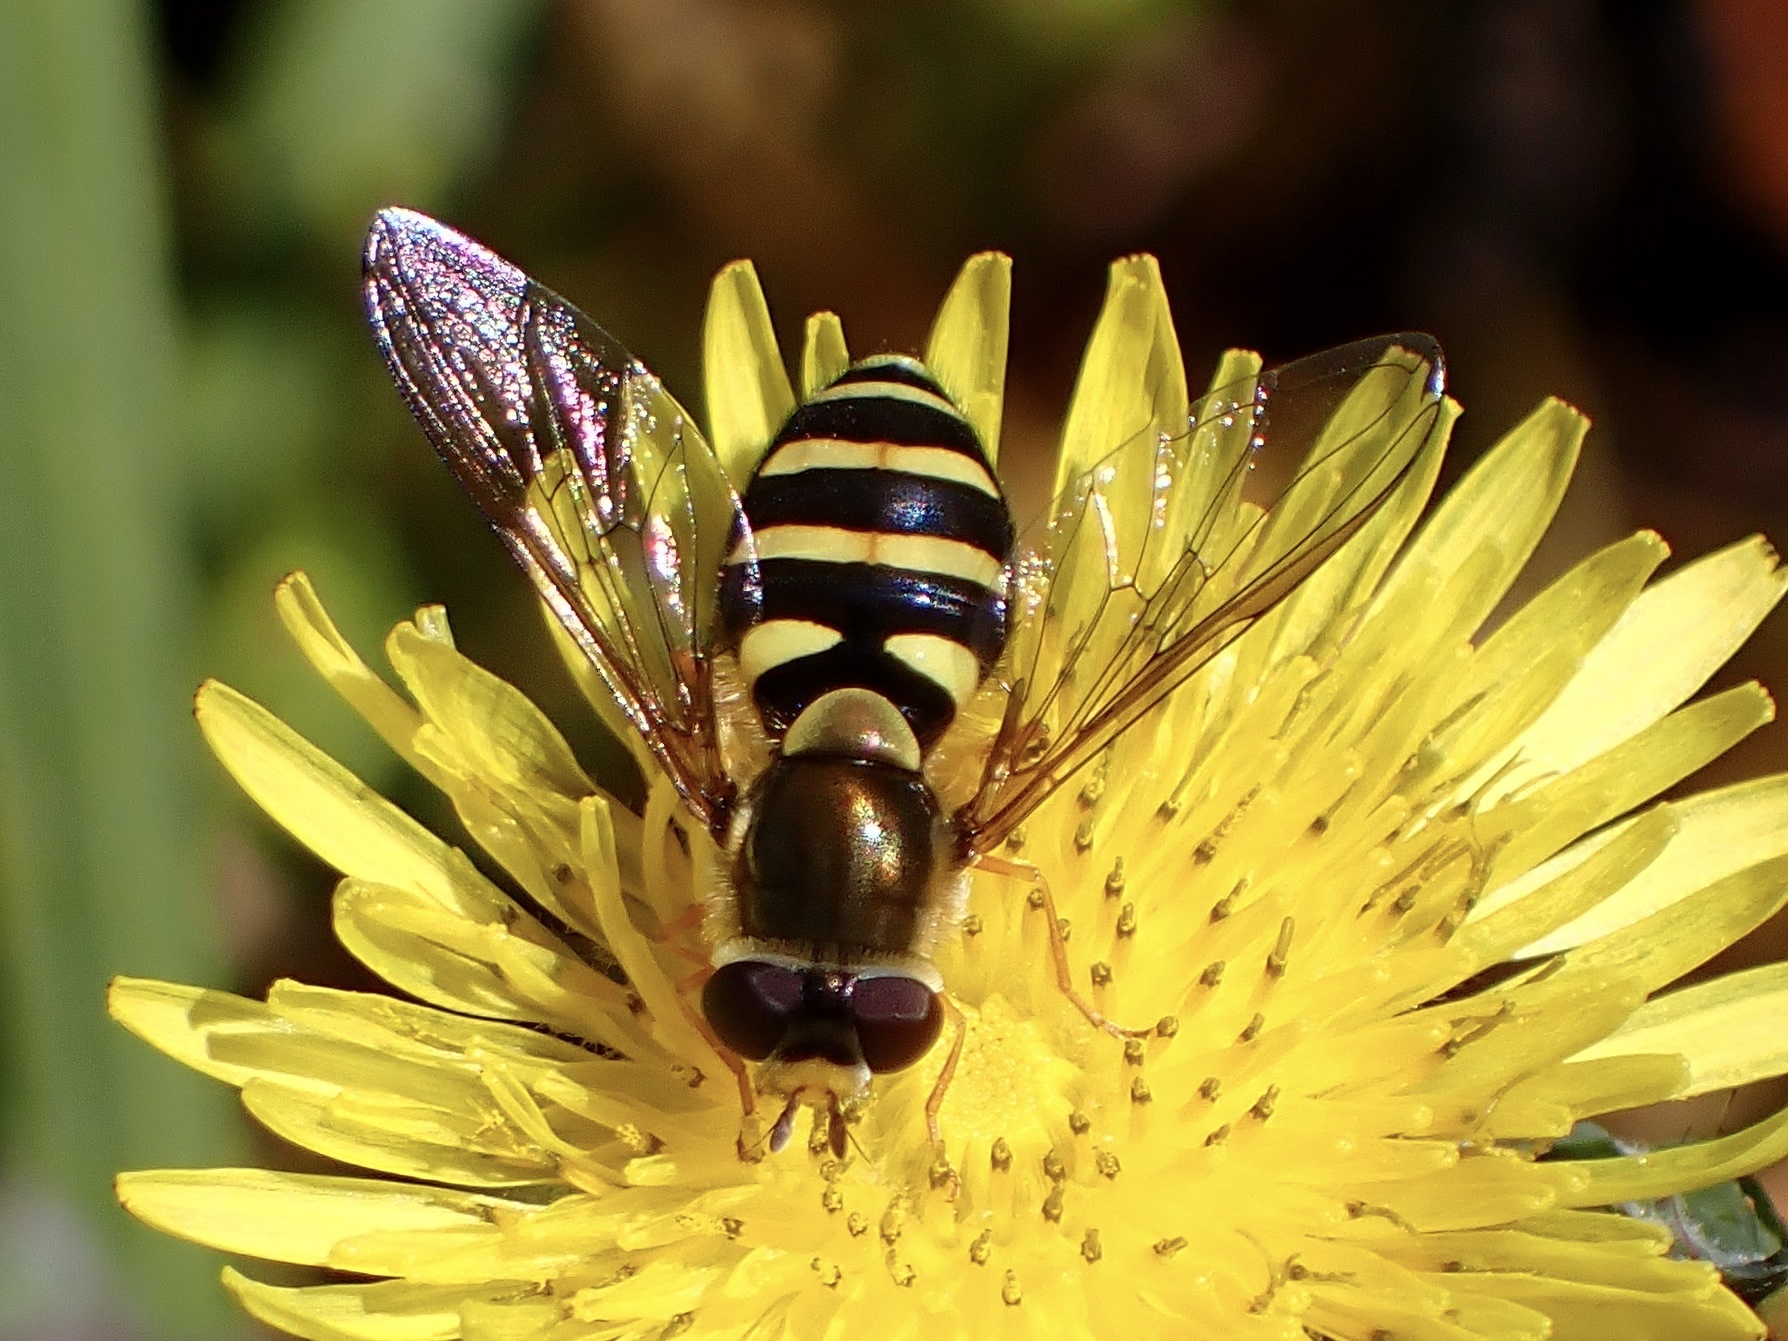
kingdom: Animalia
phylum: Arthropoda
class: Insecta
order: Diptera
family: Syrphidae
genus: Syrphus
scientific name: Syrphus opinator
